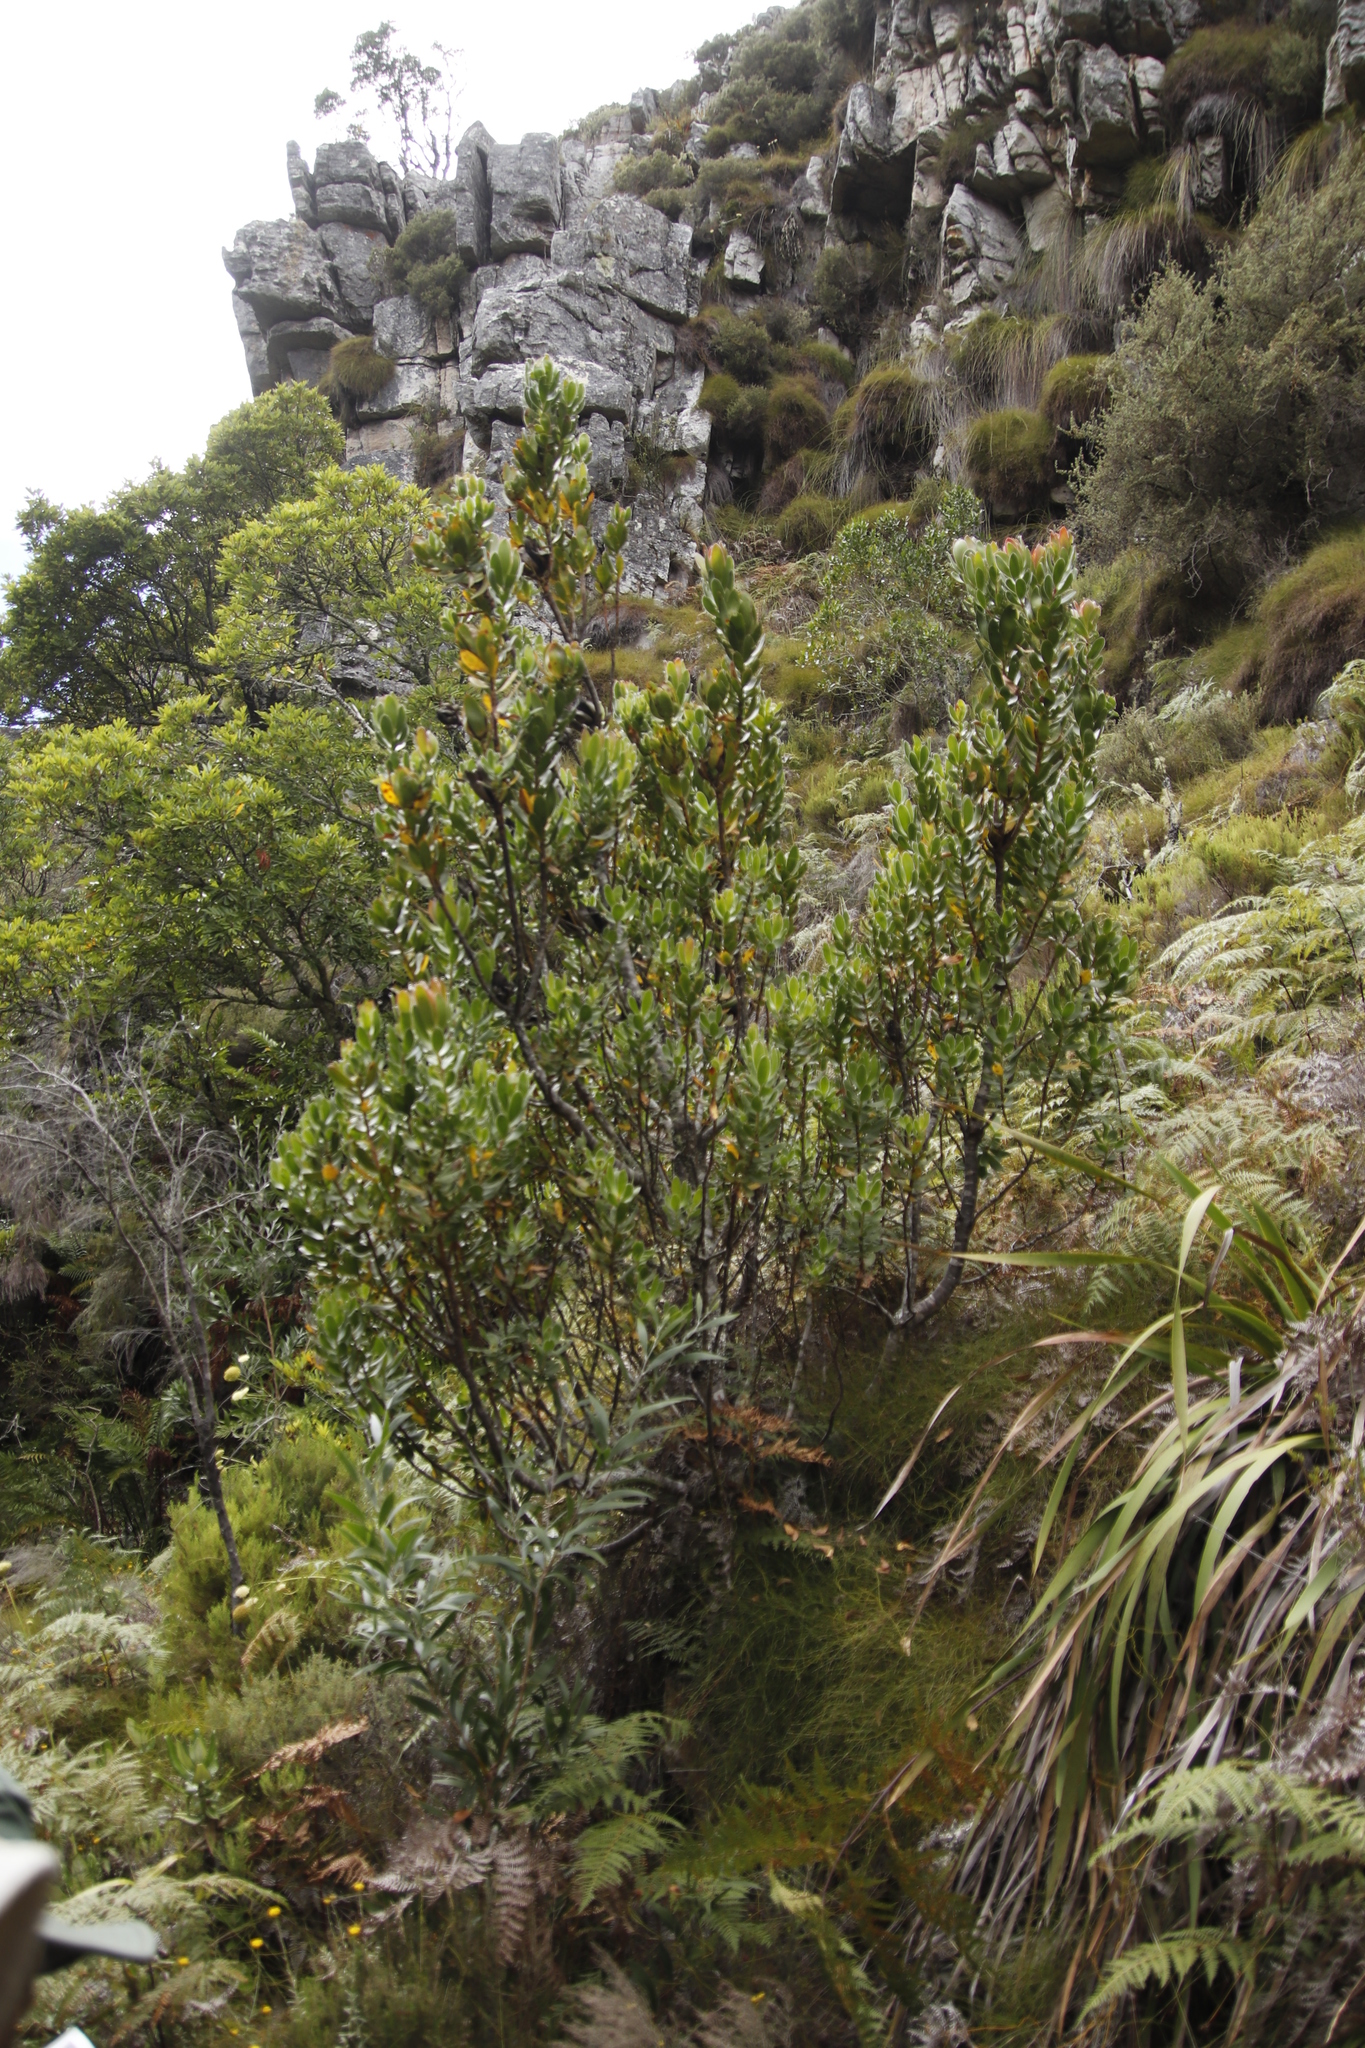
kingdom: Plantae
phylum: Tracheophyta
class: Magnoliopsida
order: Proteales
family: Proteaceae
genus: Leucadendron
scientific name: Leucadendron strobilinum
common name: Mountain rose
